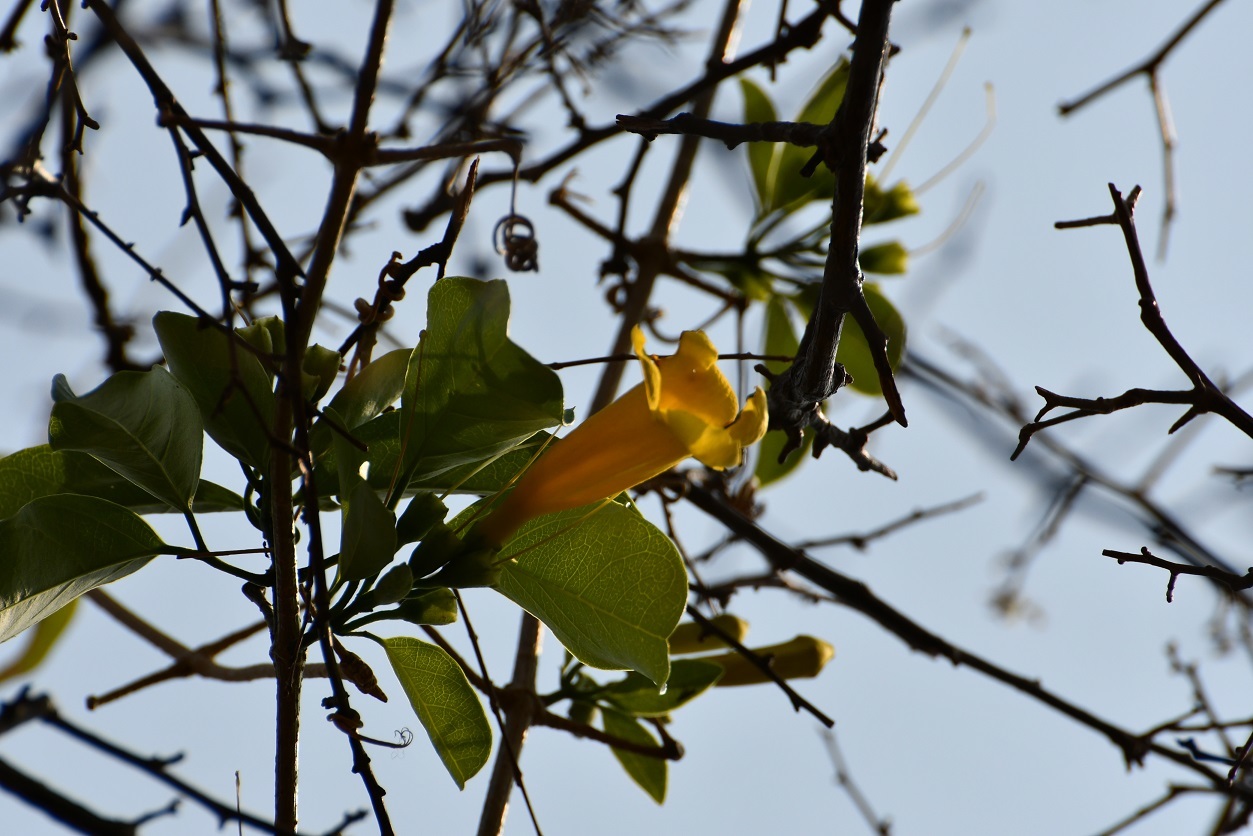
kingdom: Plantae
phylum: Tracheophyta
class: Magnoliopsida
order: Lamiales
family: Bignoniaceae
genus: Anemopaegma
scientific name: Anemopaegma chrysanthum
